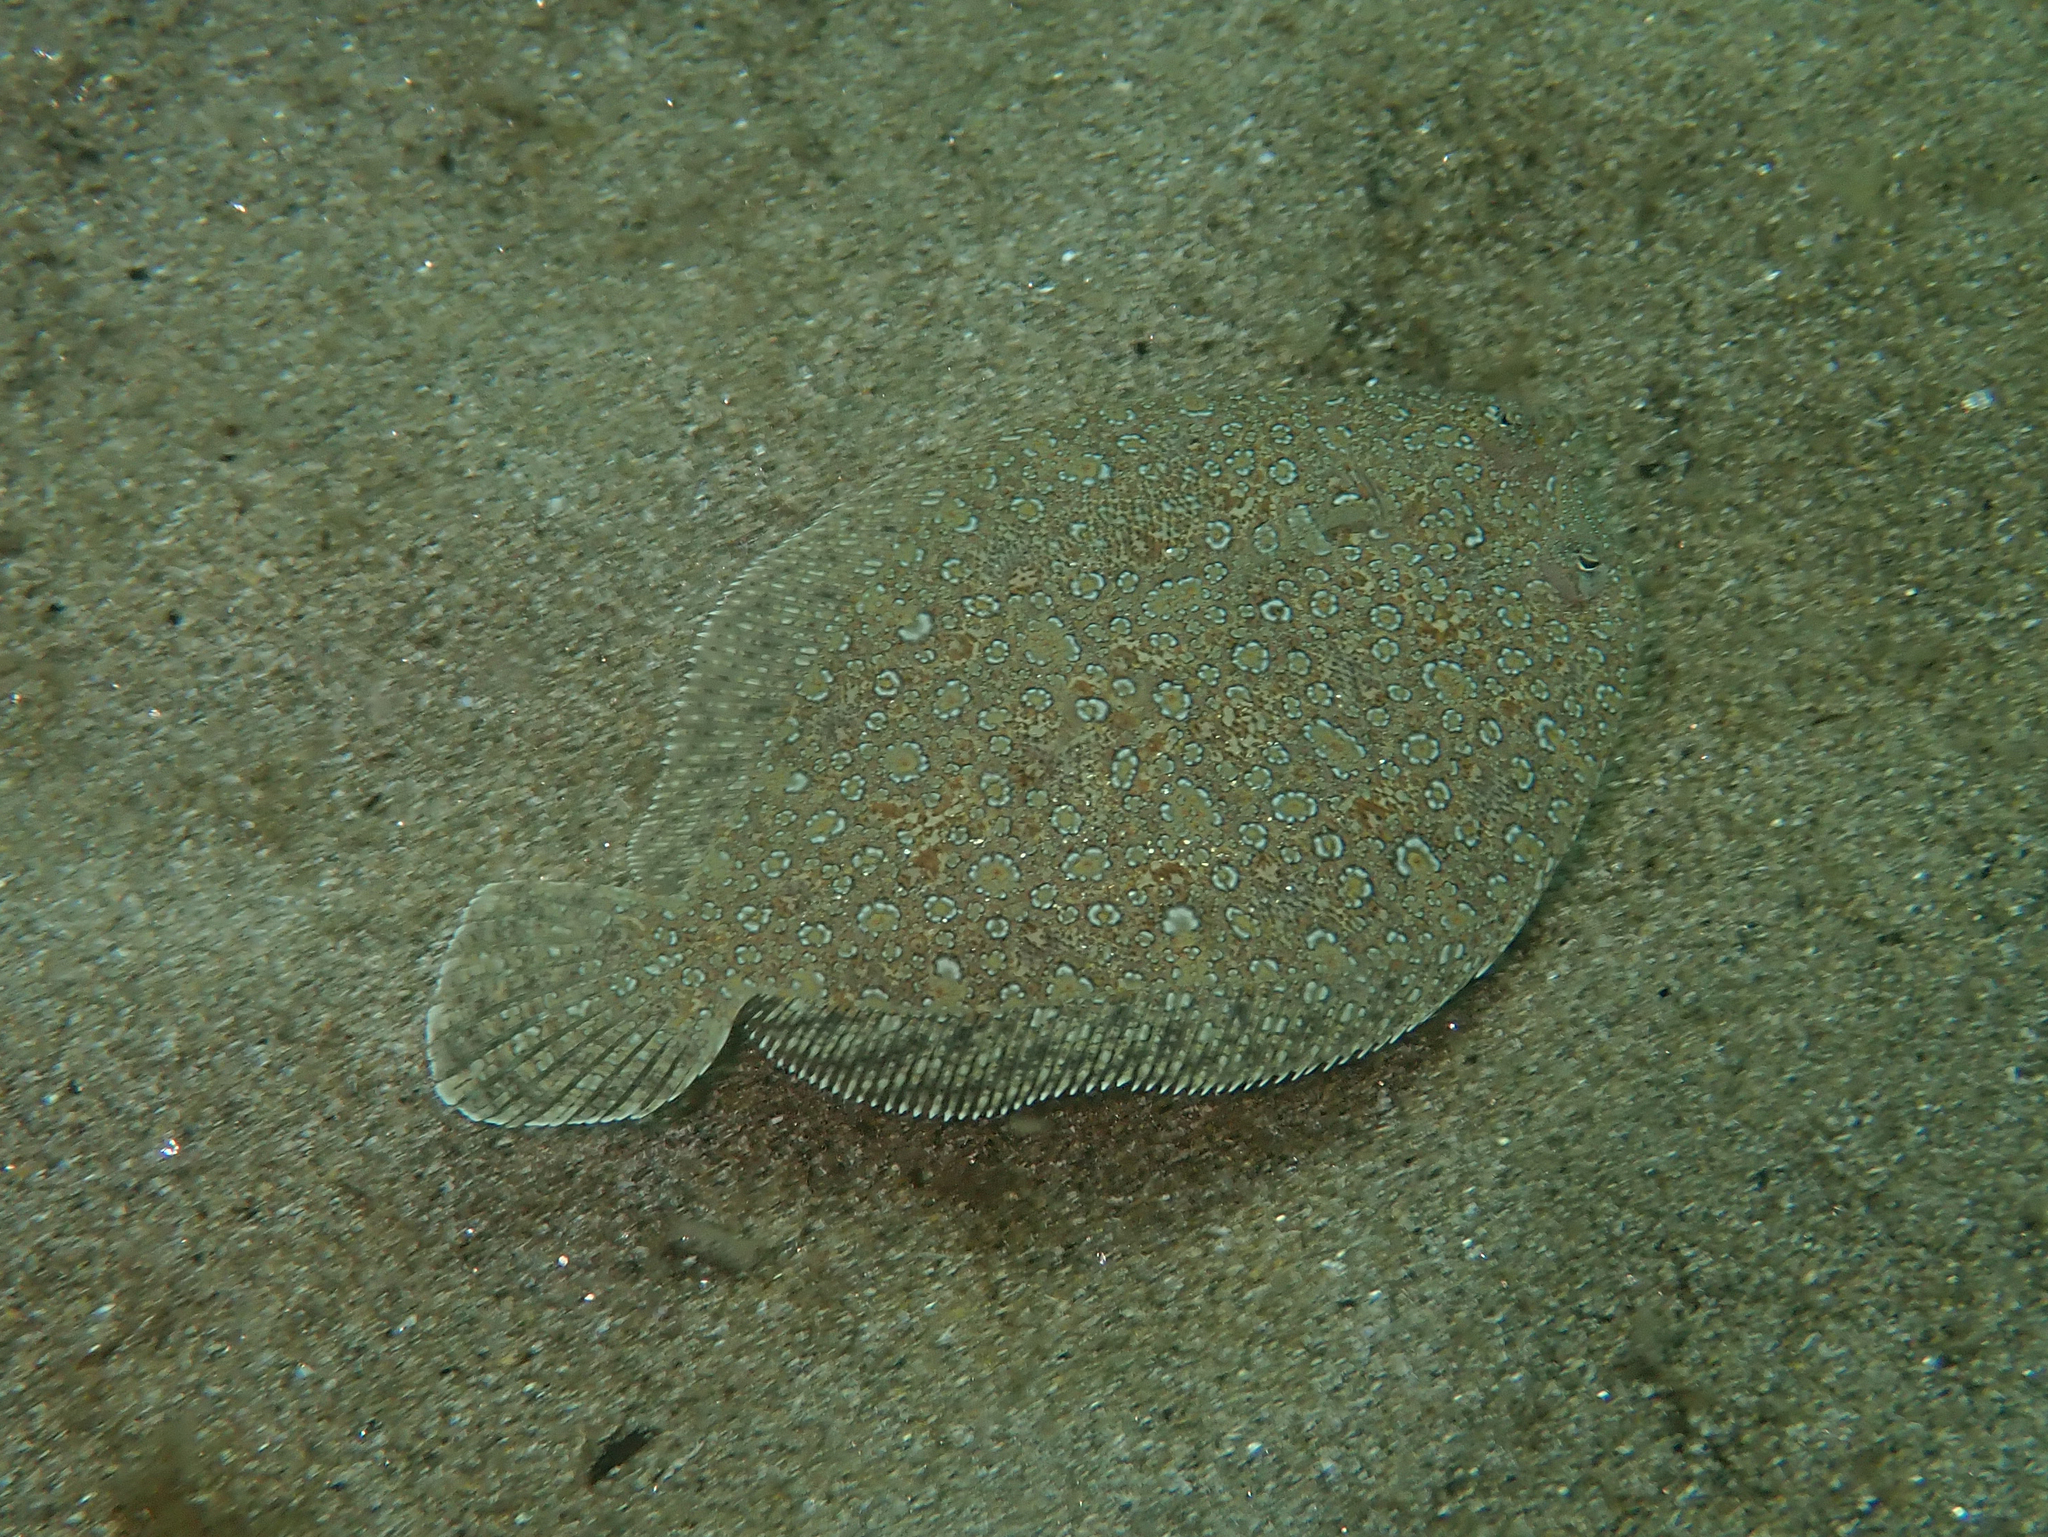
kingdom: Animalia
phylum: Chordata
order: Pleuronectiformes
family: Bothidae
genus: Bothus
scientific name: Bothus podas
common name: Wide-eyed flounder
